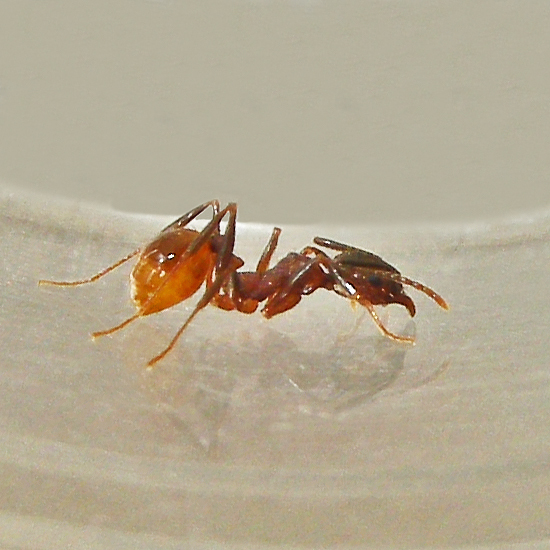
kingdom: Animalia
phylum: Arthropoda
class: Insecta
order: Hymenoptera
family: Formicidae
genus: Aphaenogaster
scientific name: Aphaenogaster fulva
